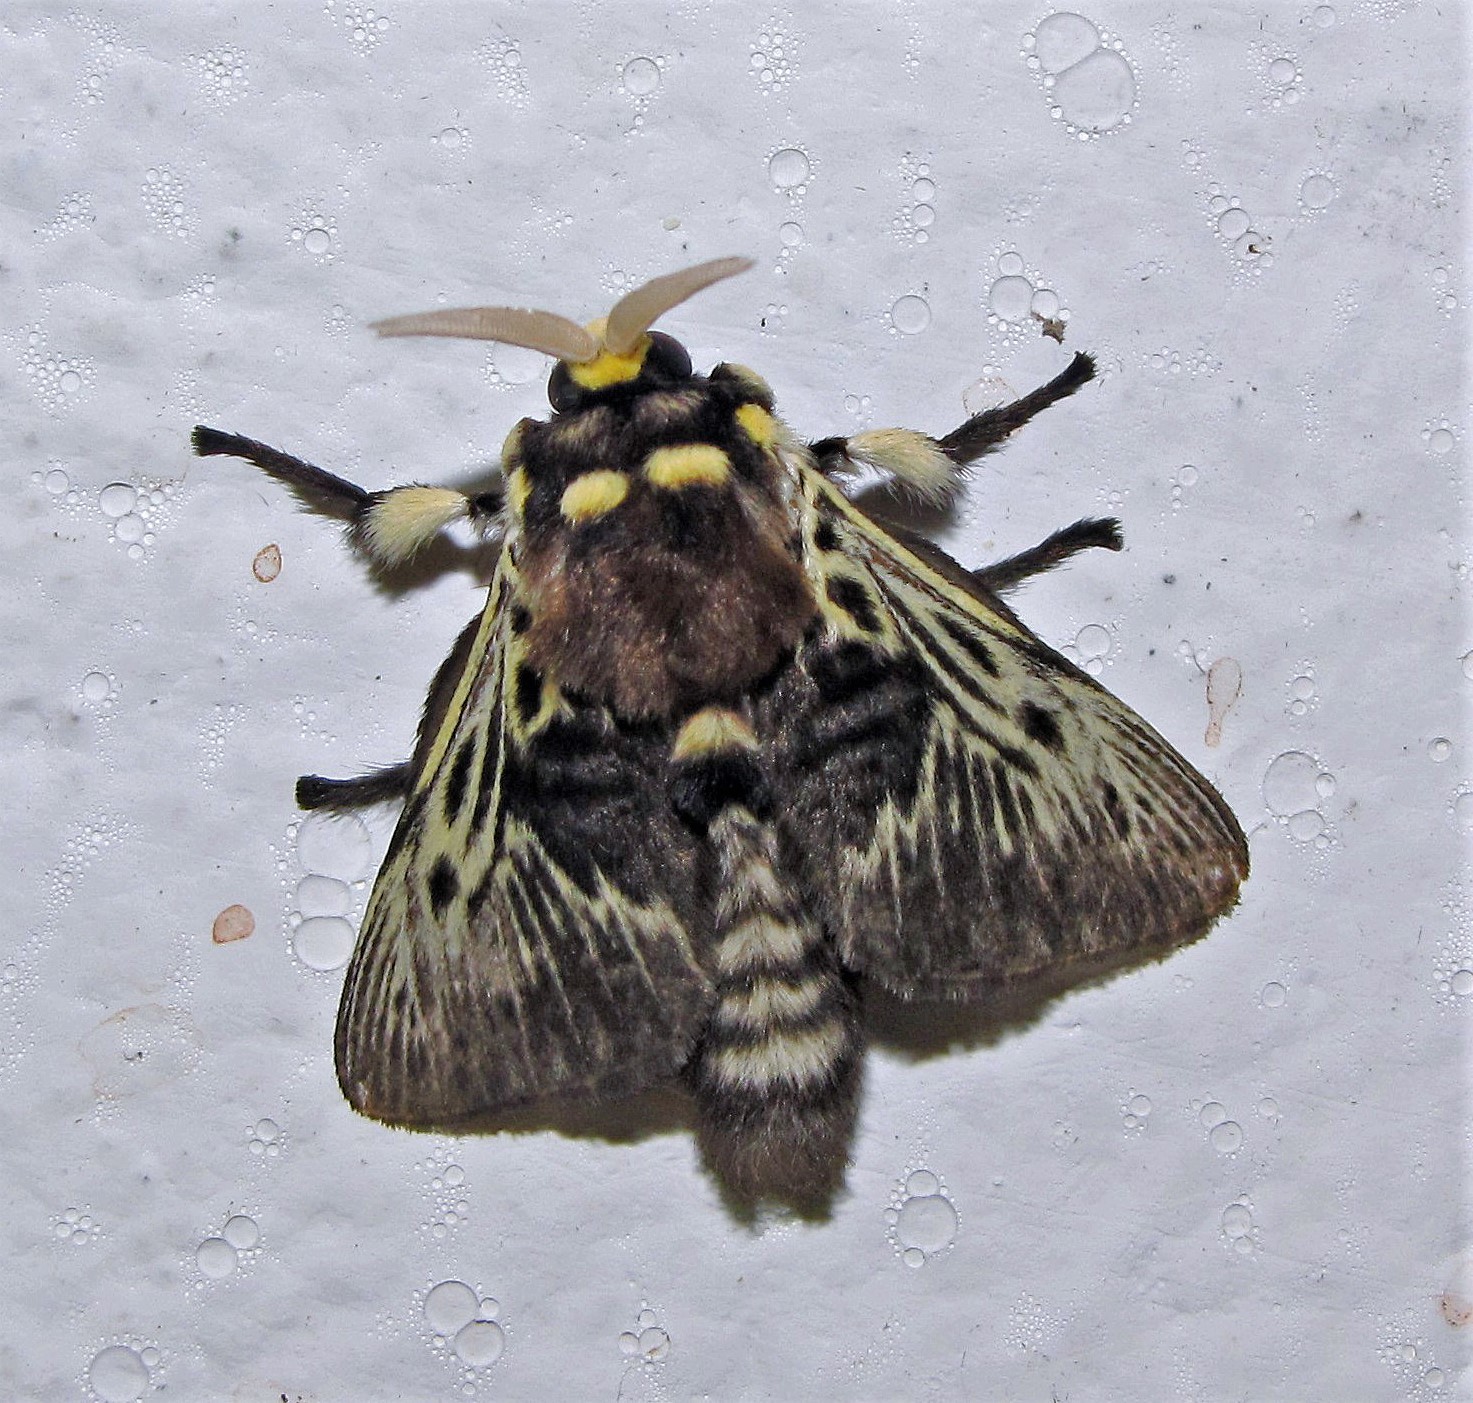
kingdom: Animalia
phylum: Arthropoda
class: Insecta
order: Lepidoptera
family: Megalopygidae
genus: Megalopyge
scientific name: Megalopyge braulio
